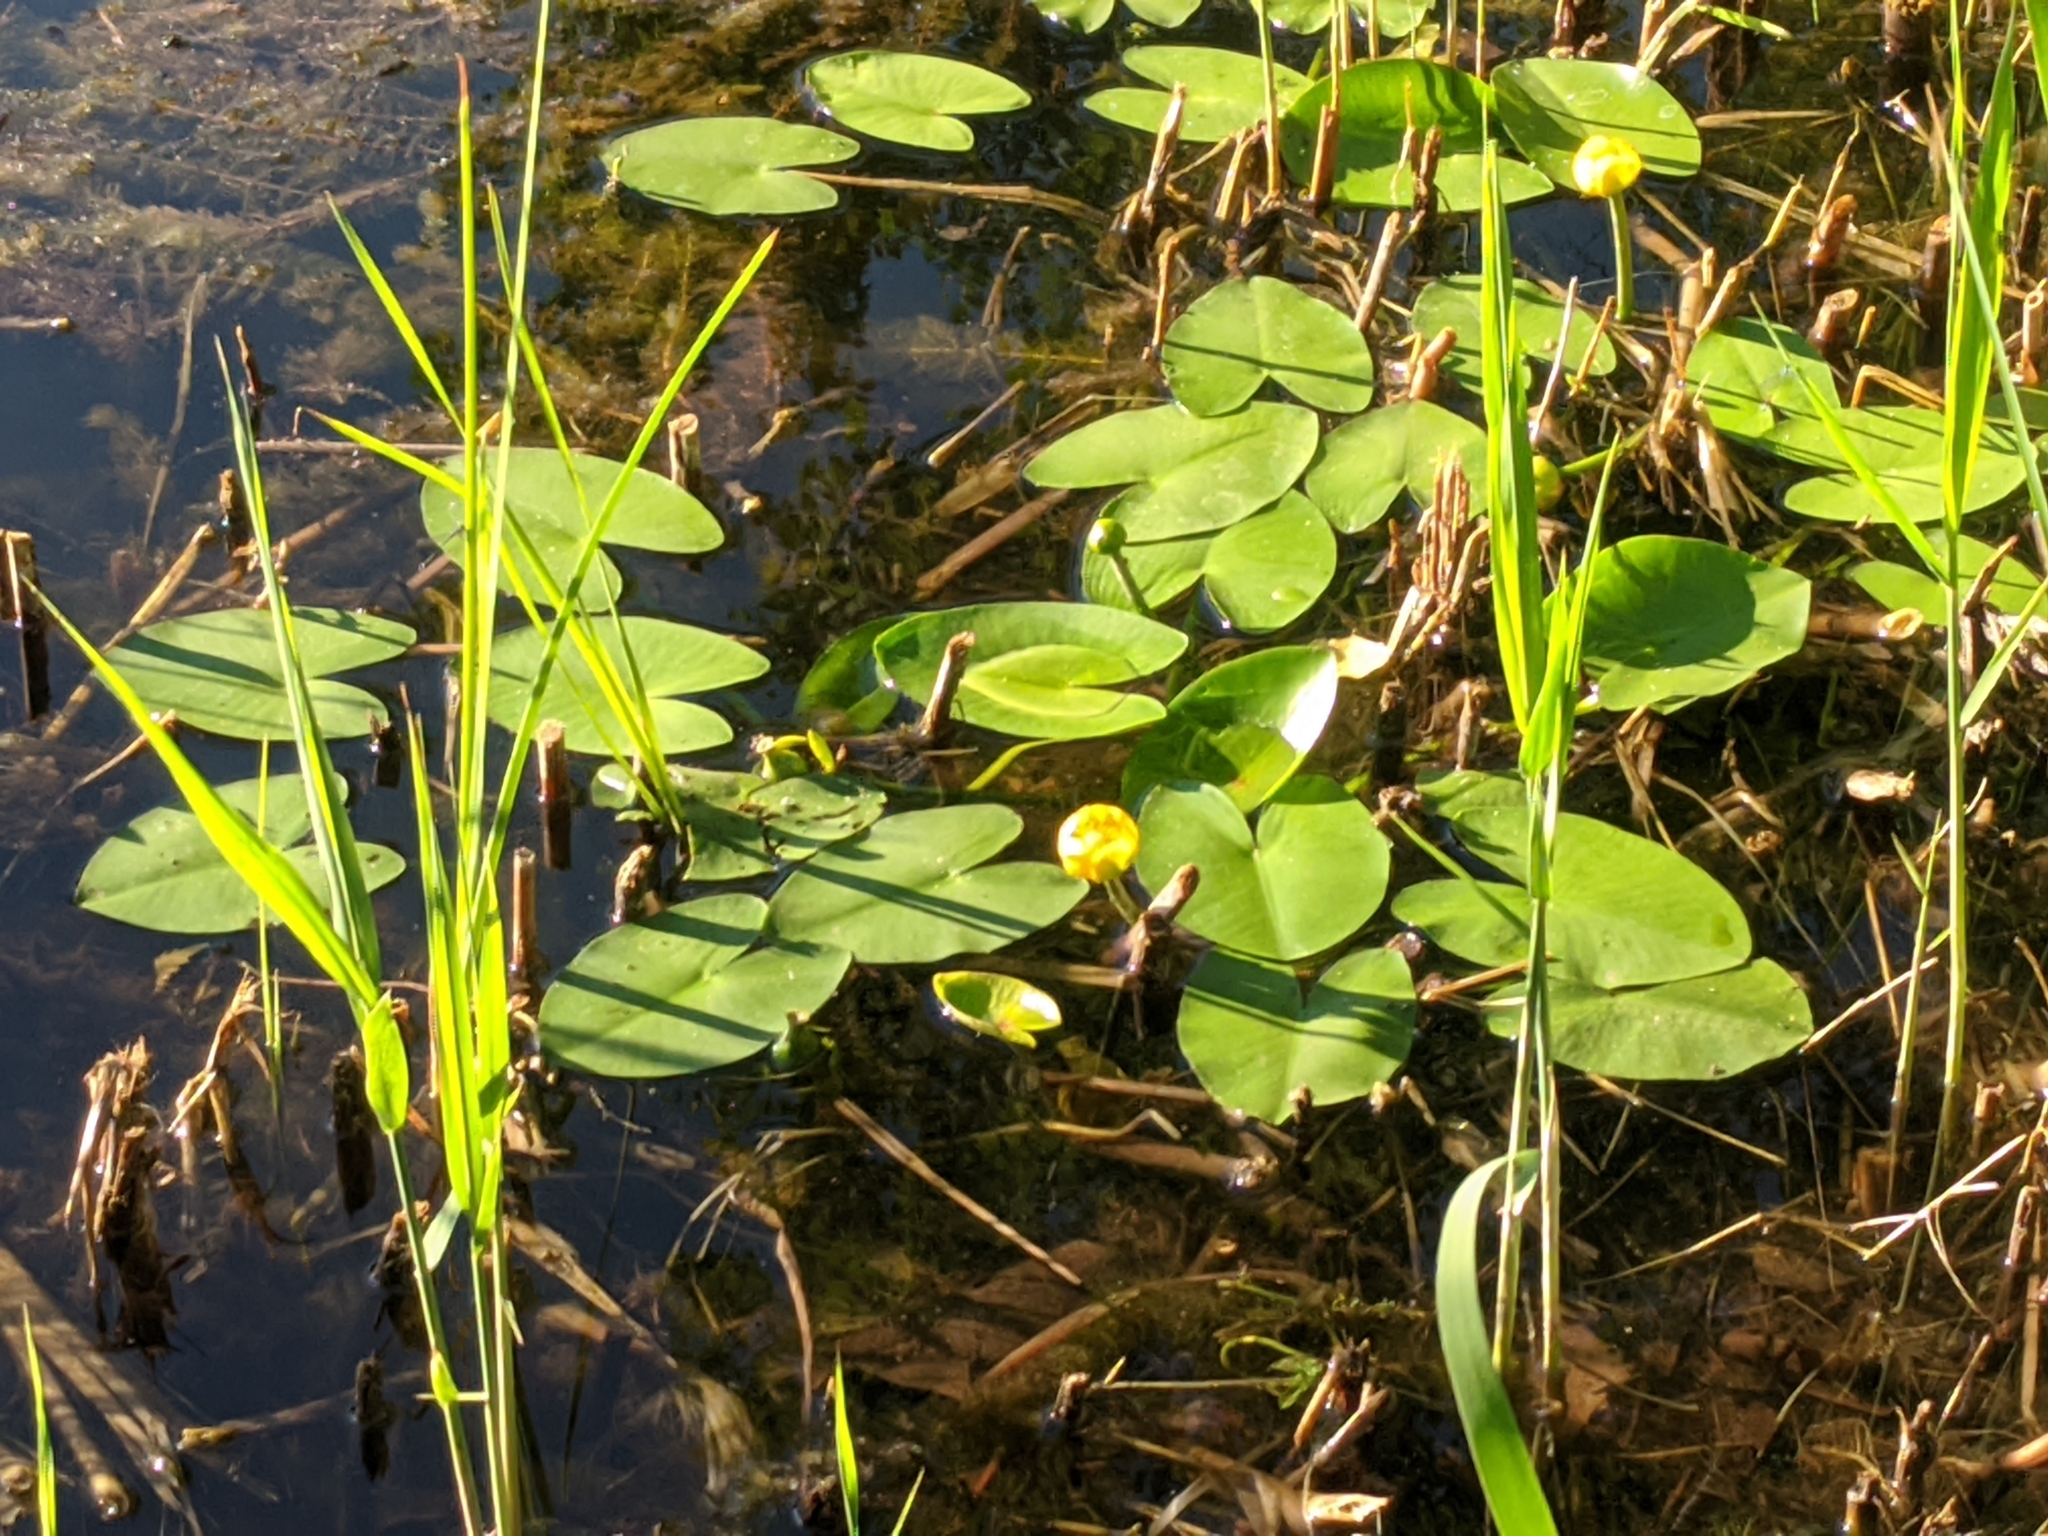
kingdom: Plantae
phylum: Tracheophyta
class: Magnoliopsida
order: Nymphaeales
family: Nymphaeaceae
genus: Nuphar
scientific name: Nuphar lutea
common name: Yellow water-lily
